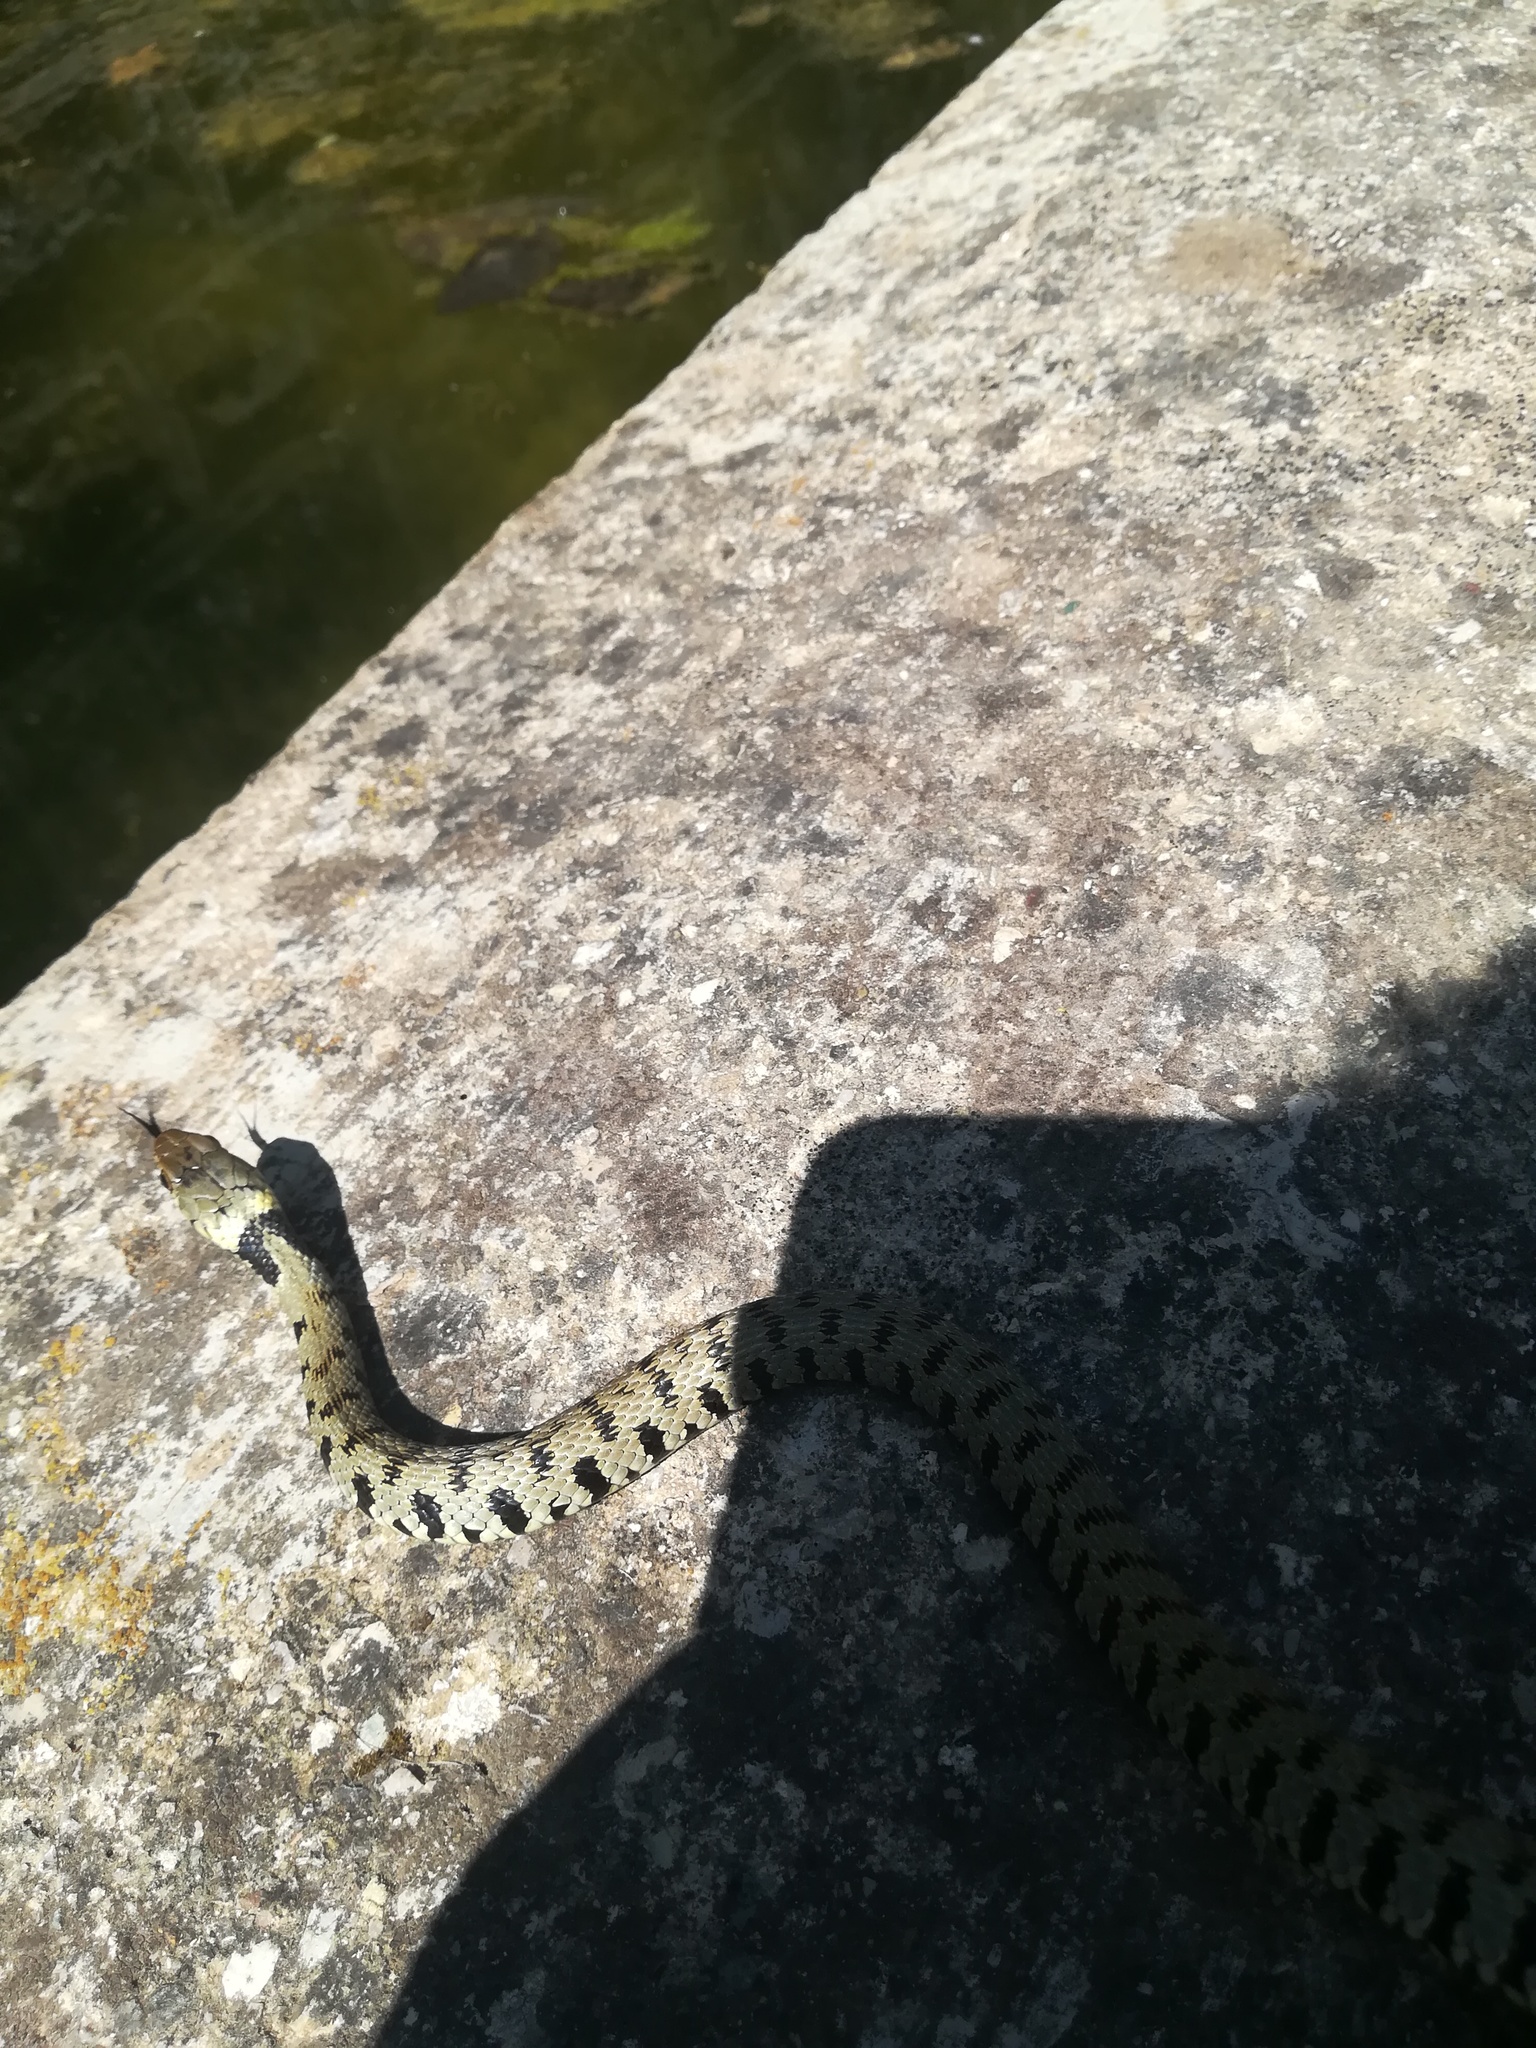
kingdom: Animalia
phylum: Chordata
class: Squamata
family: Colubridae
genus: Natrix
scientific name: Natrix helvetica
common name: Banded grass snake
